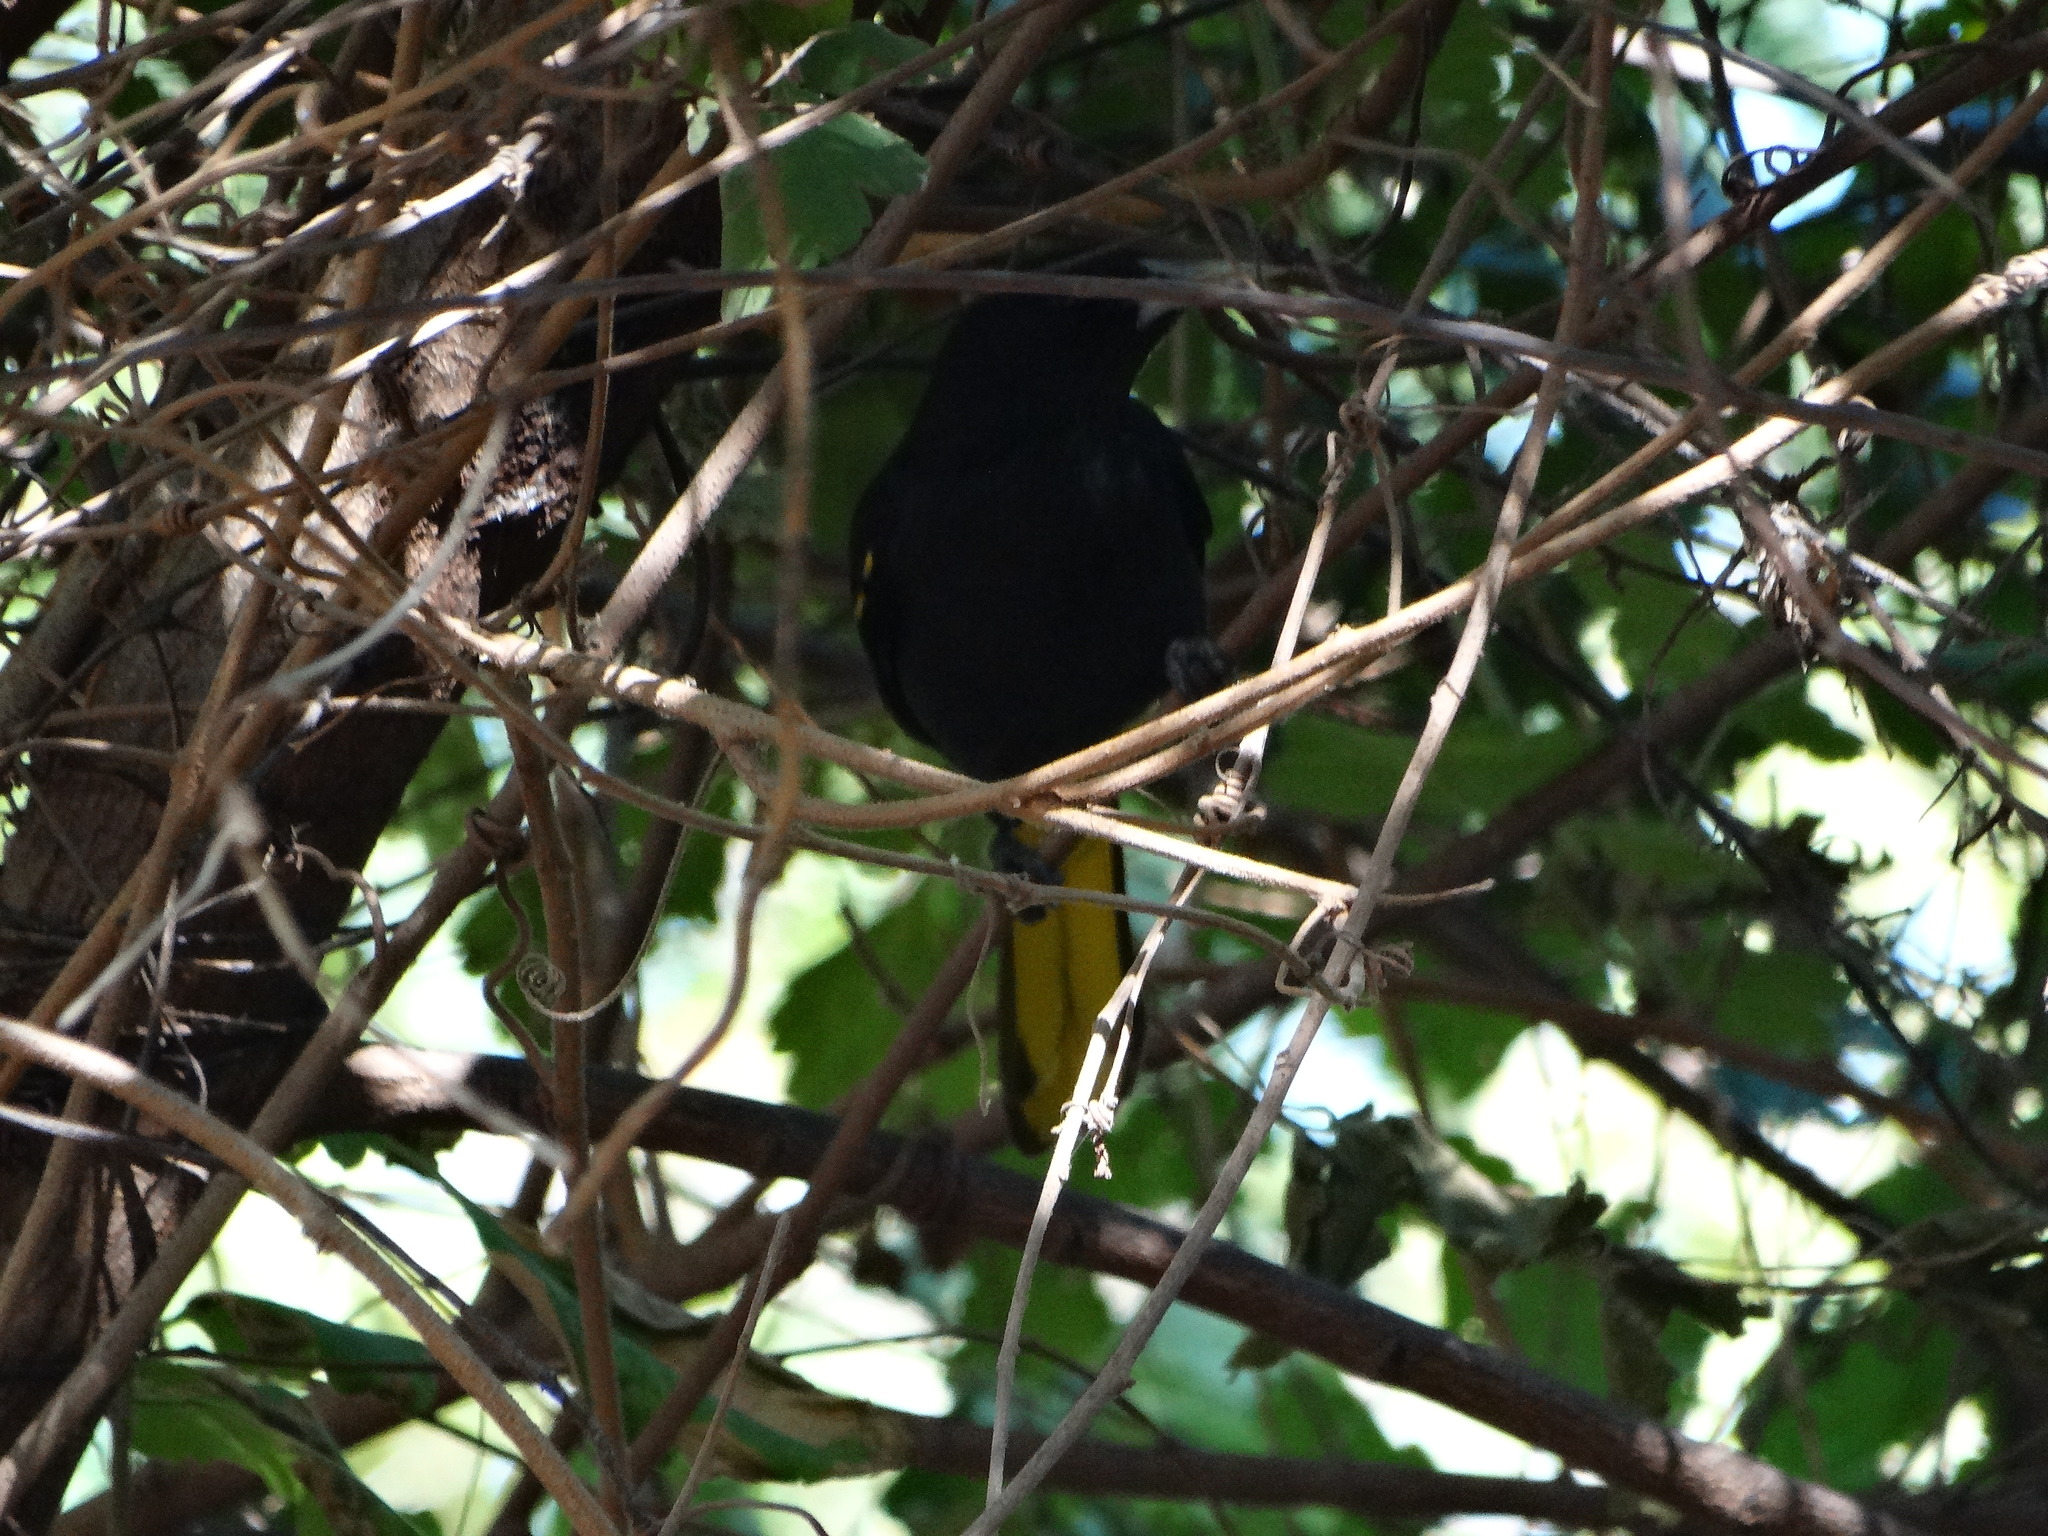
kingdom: Animalia
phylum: Chordata
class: Aves
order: Passeriformes
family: Icteridae
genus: Cacicus
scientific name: Cacicus melanicterus
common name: Yellow-winged cacique
